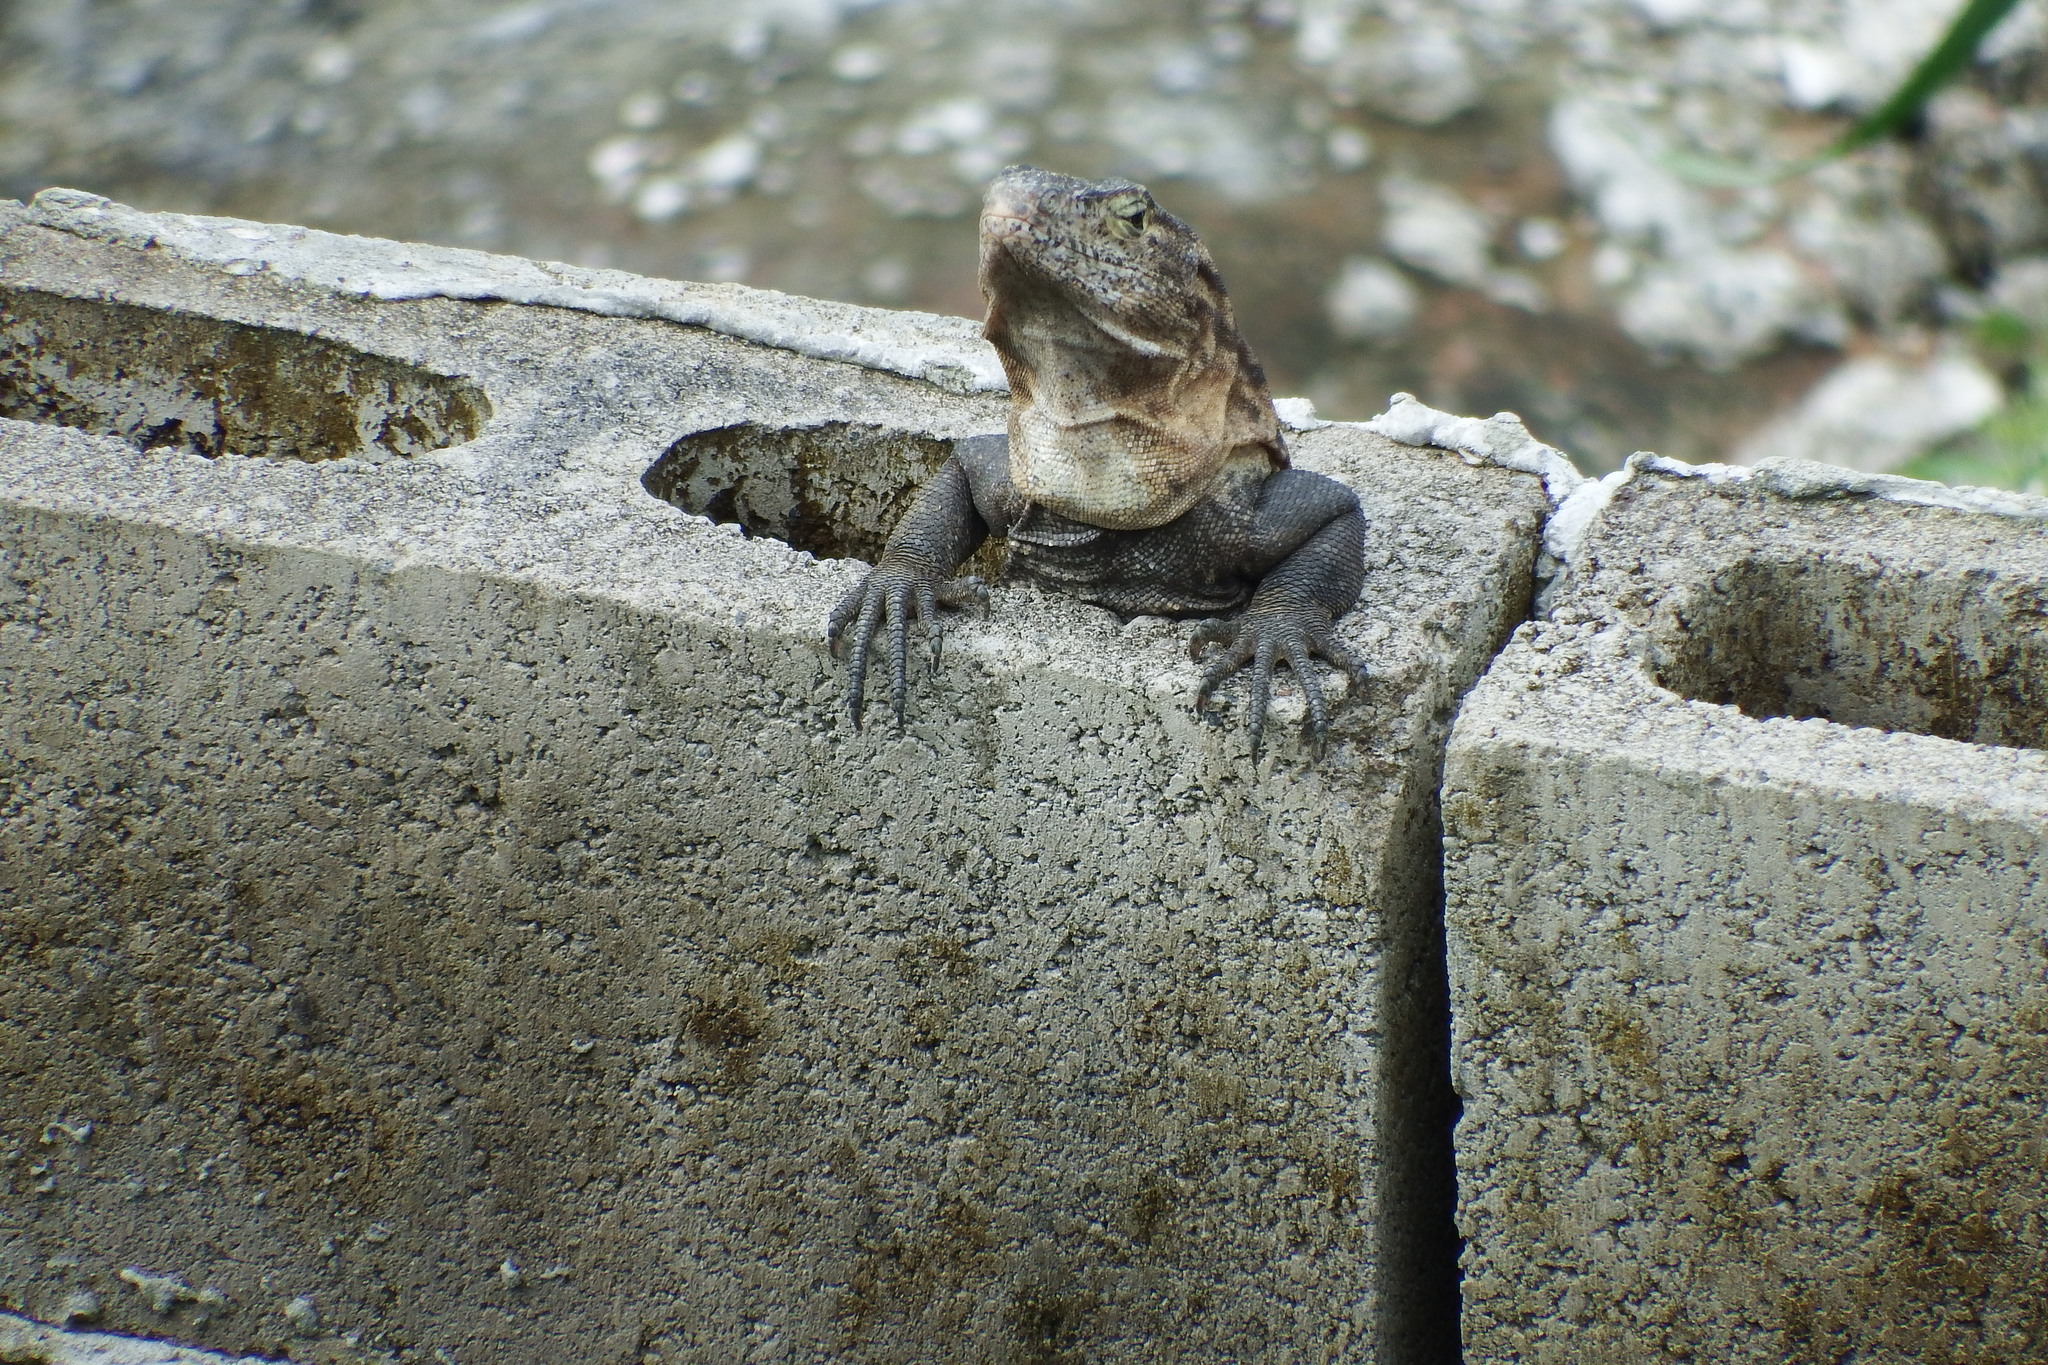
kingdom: Animalia
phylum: Chordata
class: Squamata
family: Iguanidae
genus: Ctenosaura
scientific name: Ctenosaura similis
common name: Black spiny-tailed iguana
